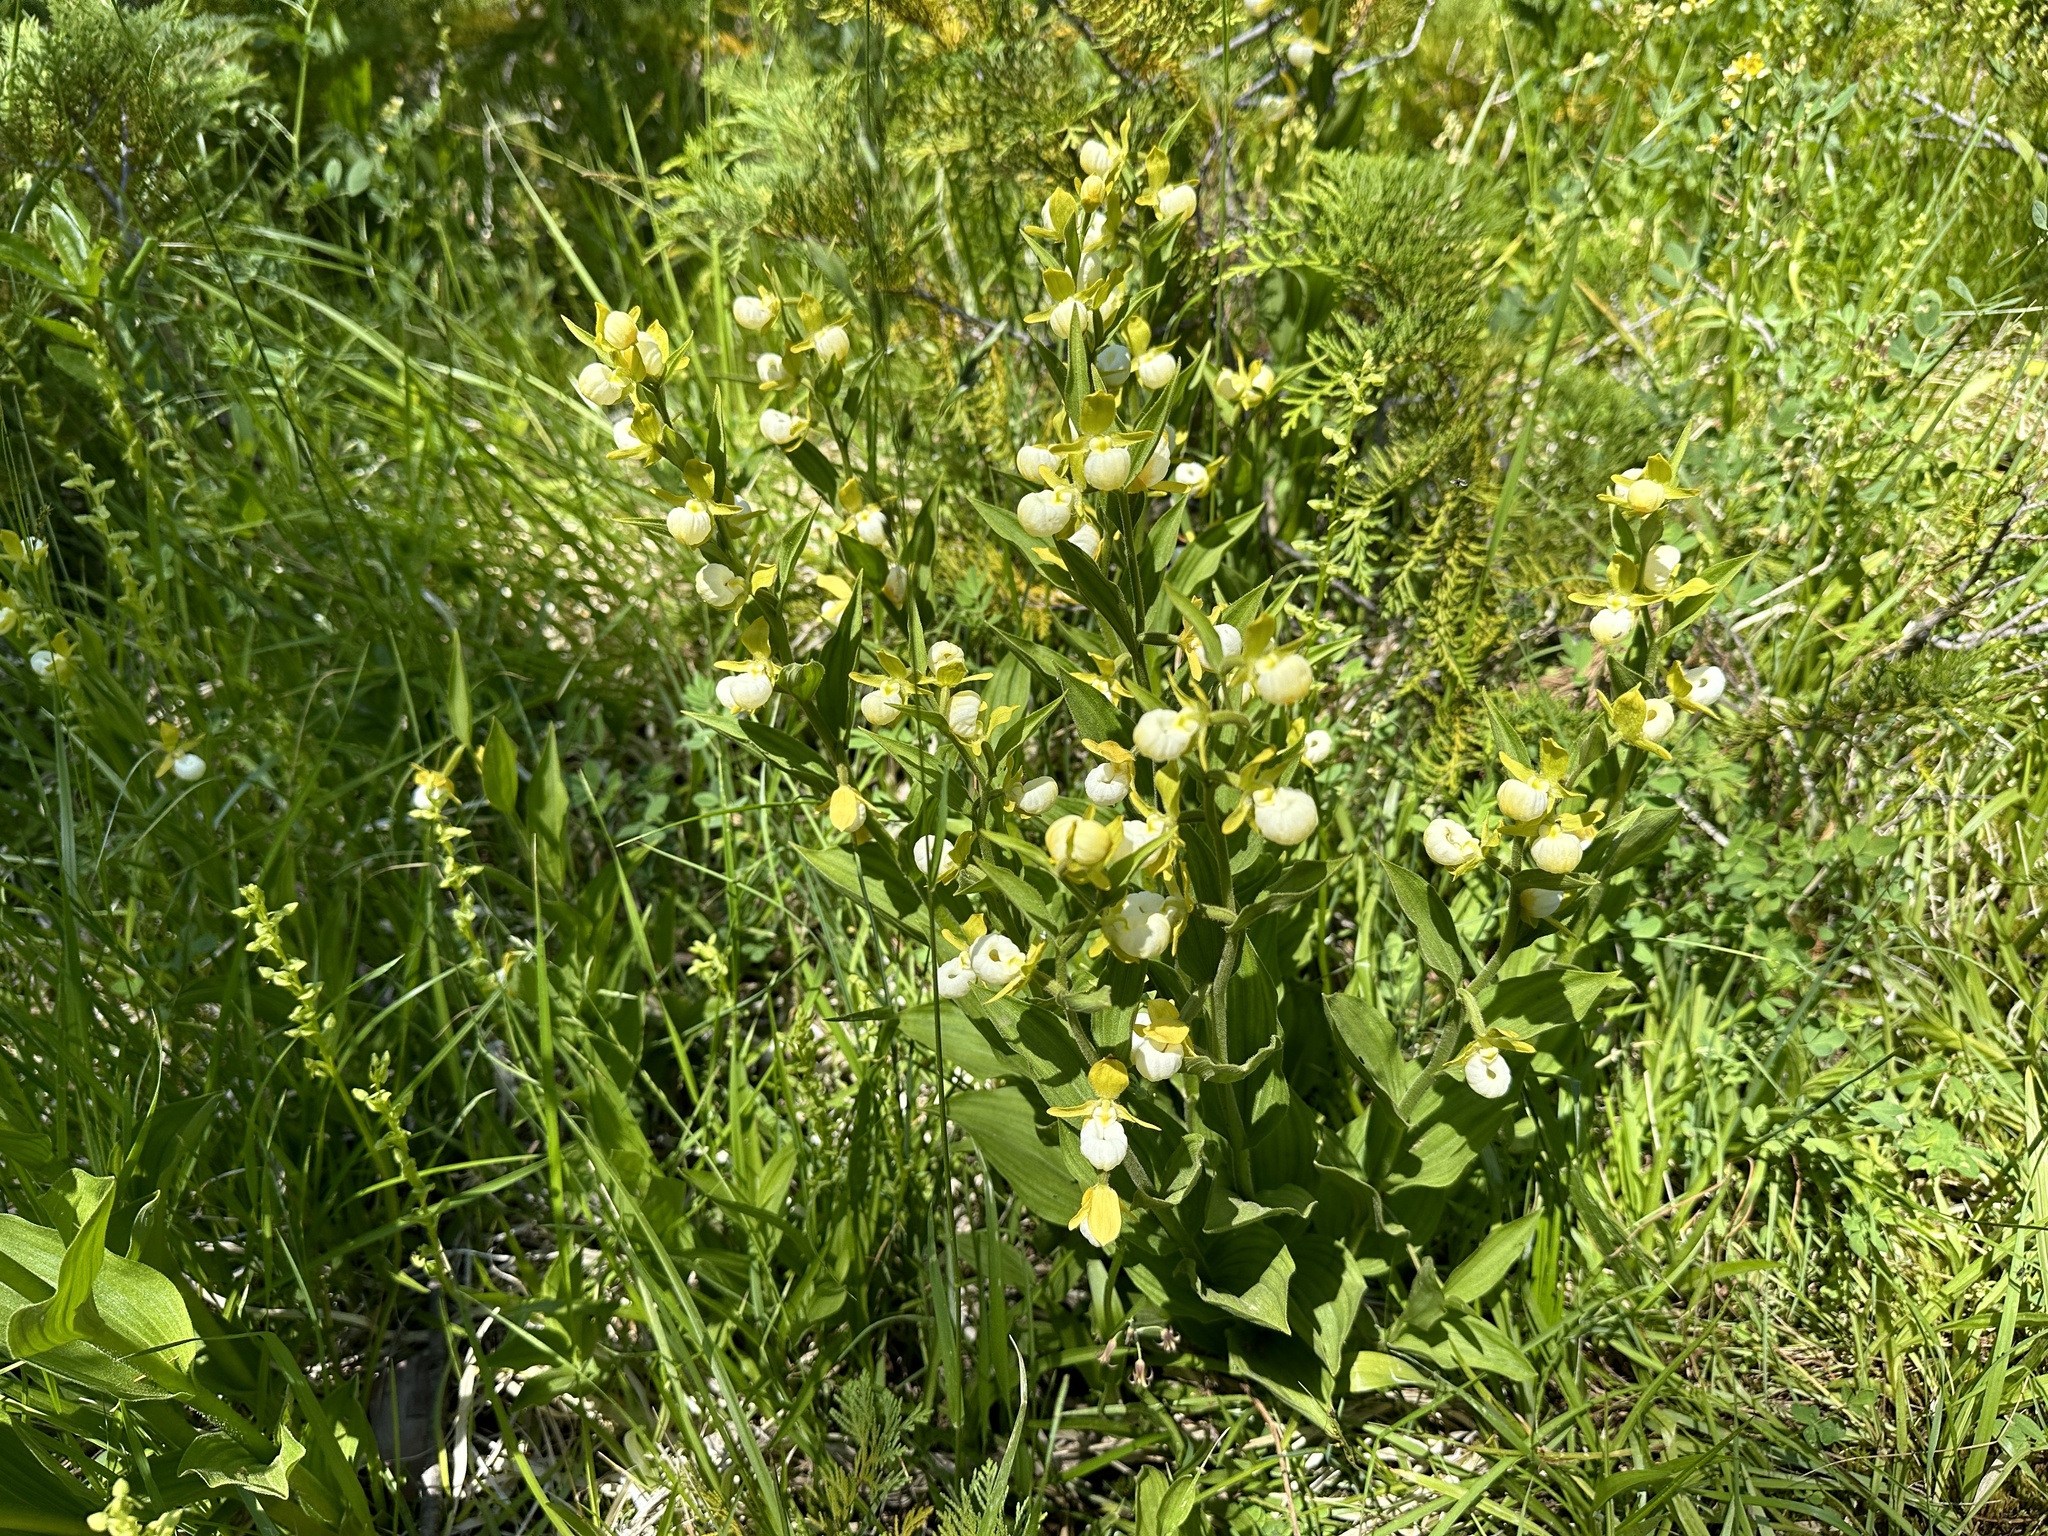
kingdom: Plantae
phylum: Tracheophyta
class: Liliopsida
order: Asparagales
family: Orchidaceae
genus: Cypripedium
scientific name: Cypripedium californicum
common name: California lady's slipper
